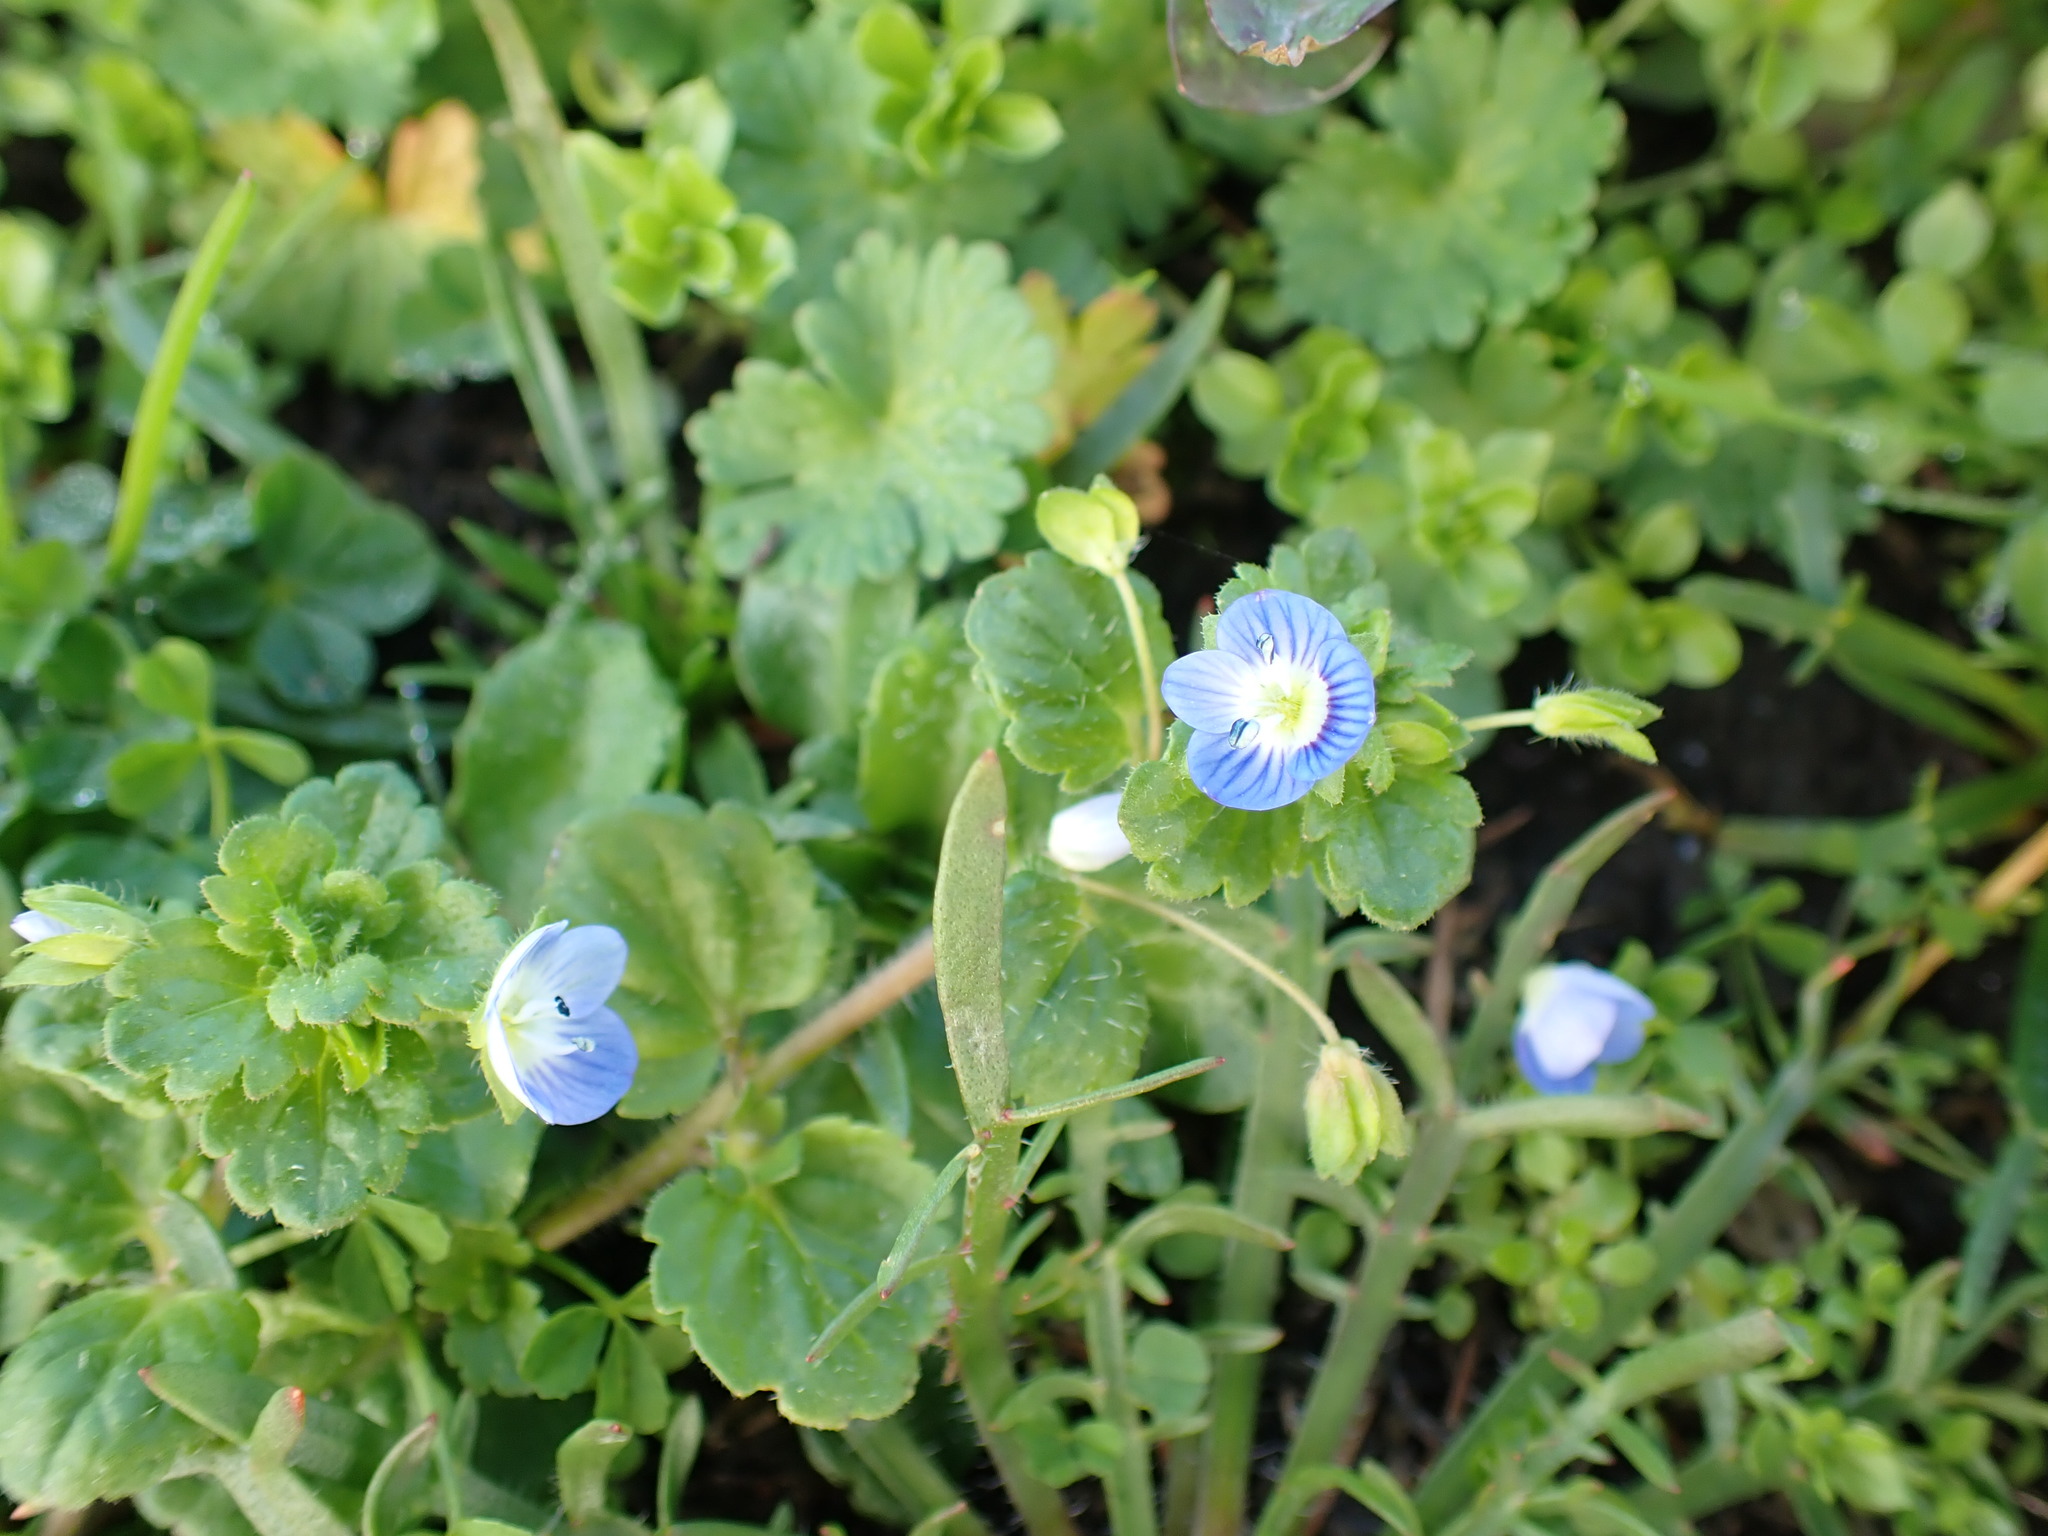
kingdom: Plantae
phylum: Tracheophyta
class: Magnoliopsida
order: Lamiales
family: Plantaginaceae
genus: Veronica
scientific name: Veronica persica
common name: Common field-speedwell
